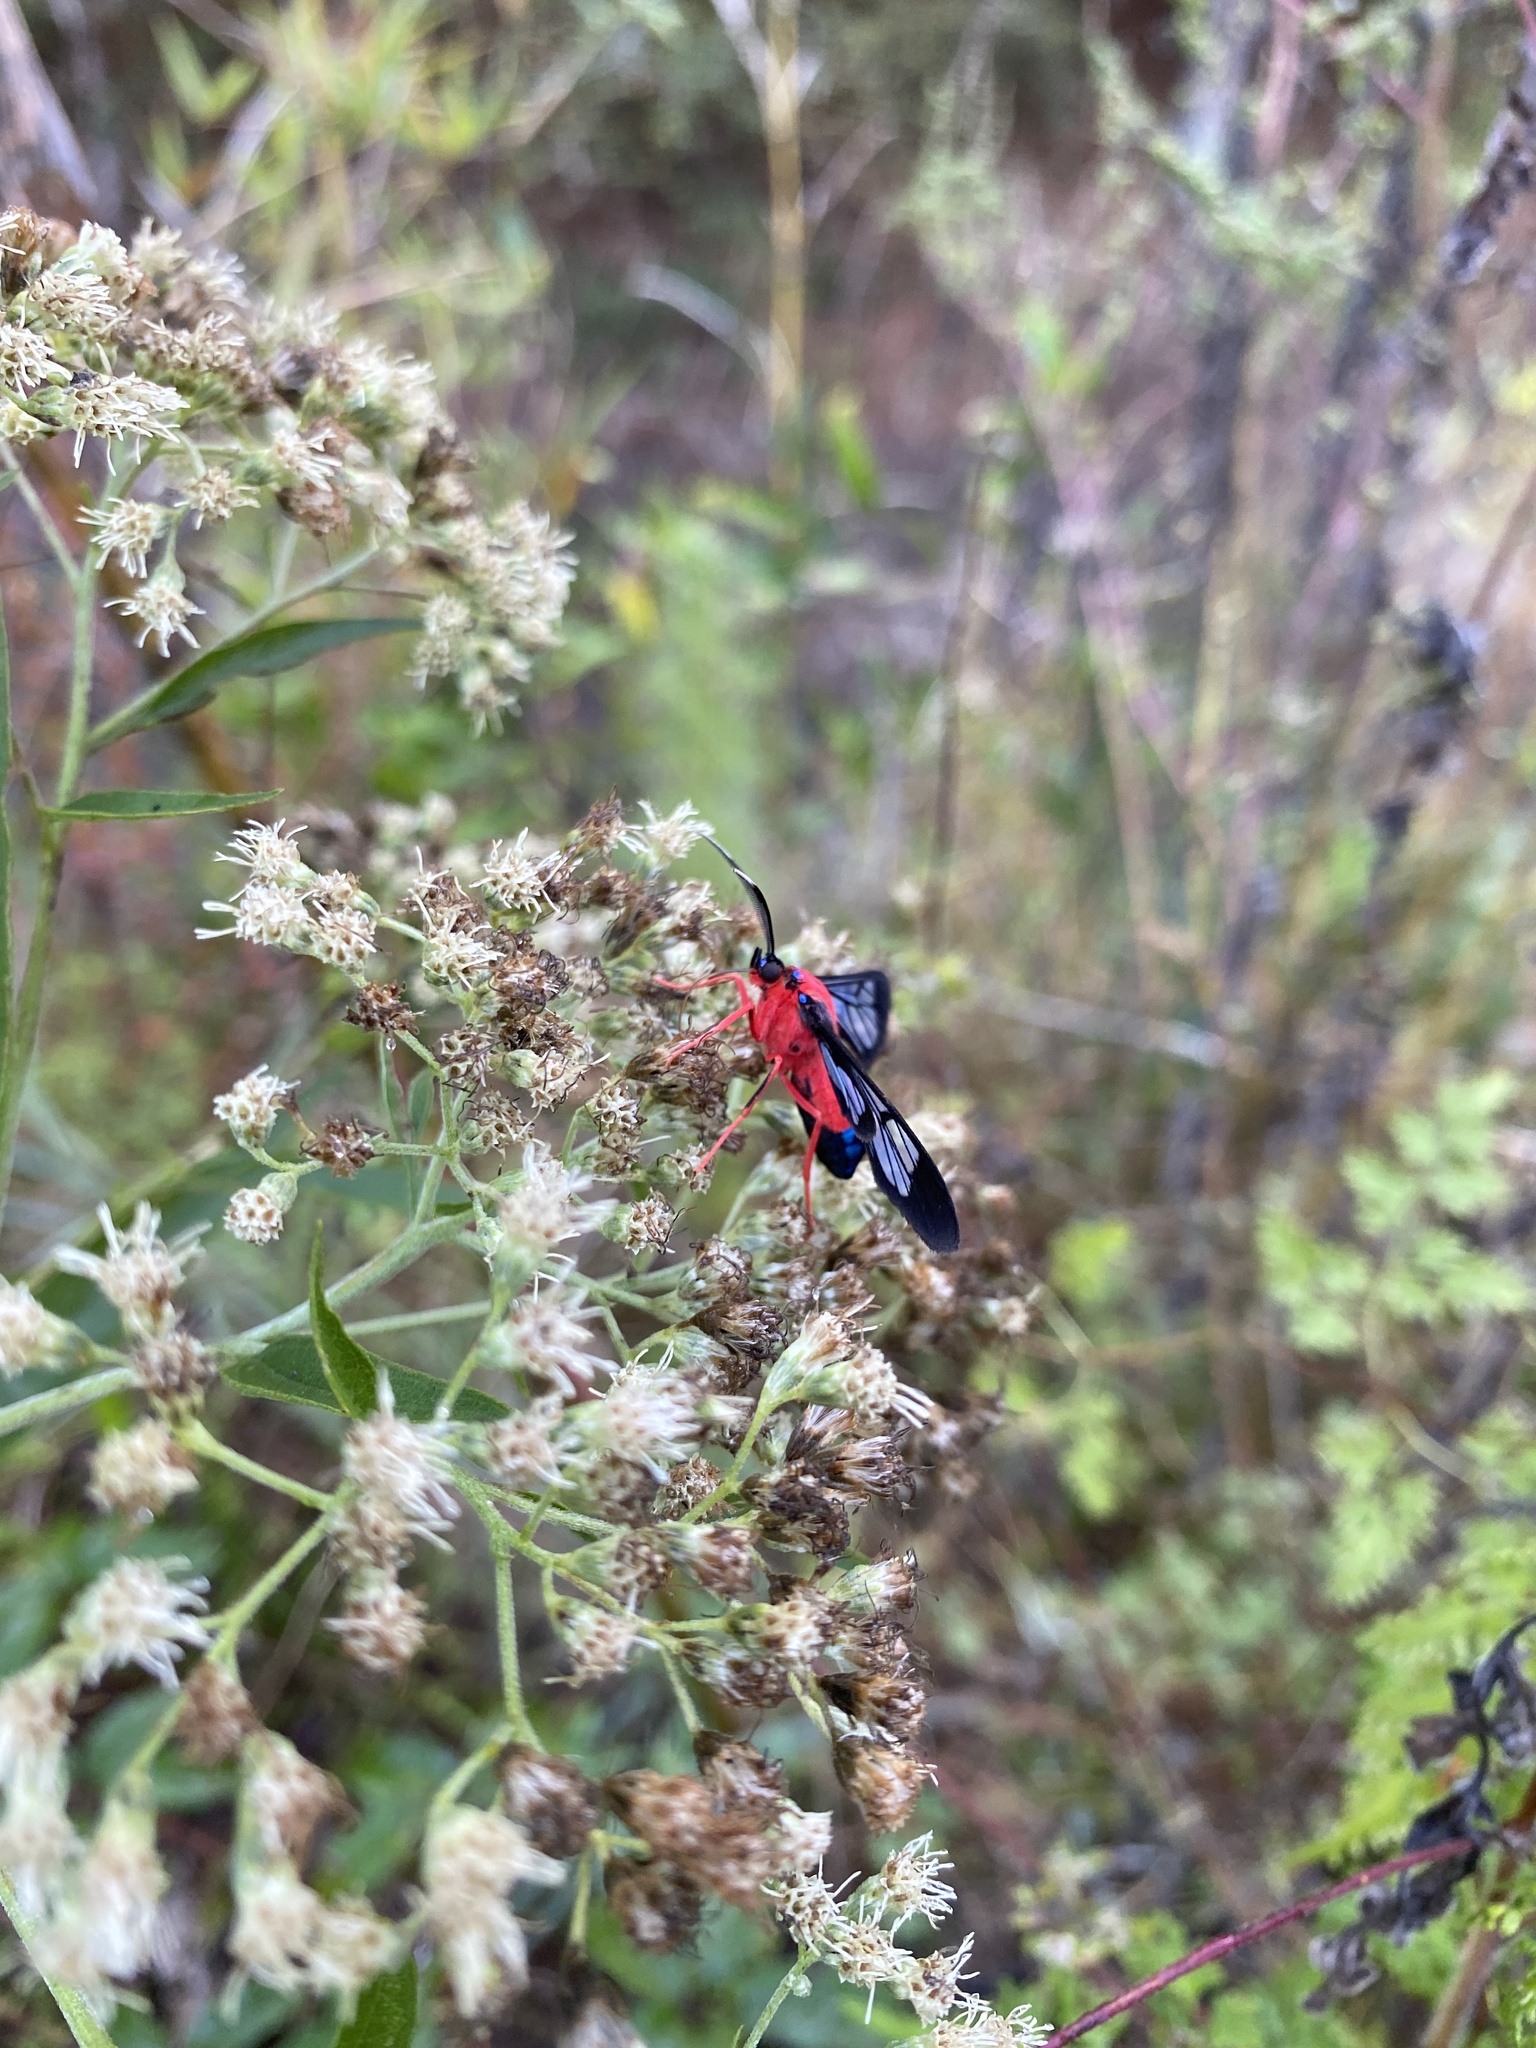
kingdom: Animalia
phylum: Arthropoda
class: Insecta
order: Lepidoptera
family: Erebidae
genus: Cosmosoma
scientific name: Cosmosoma myrodora
